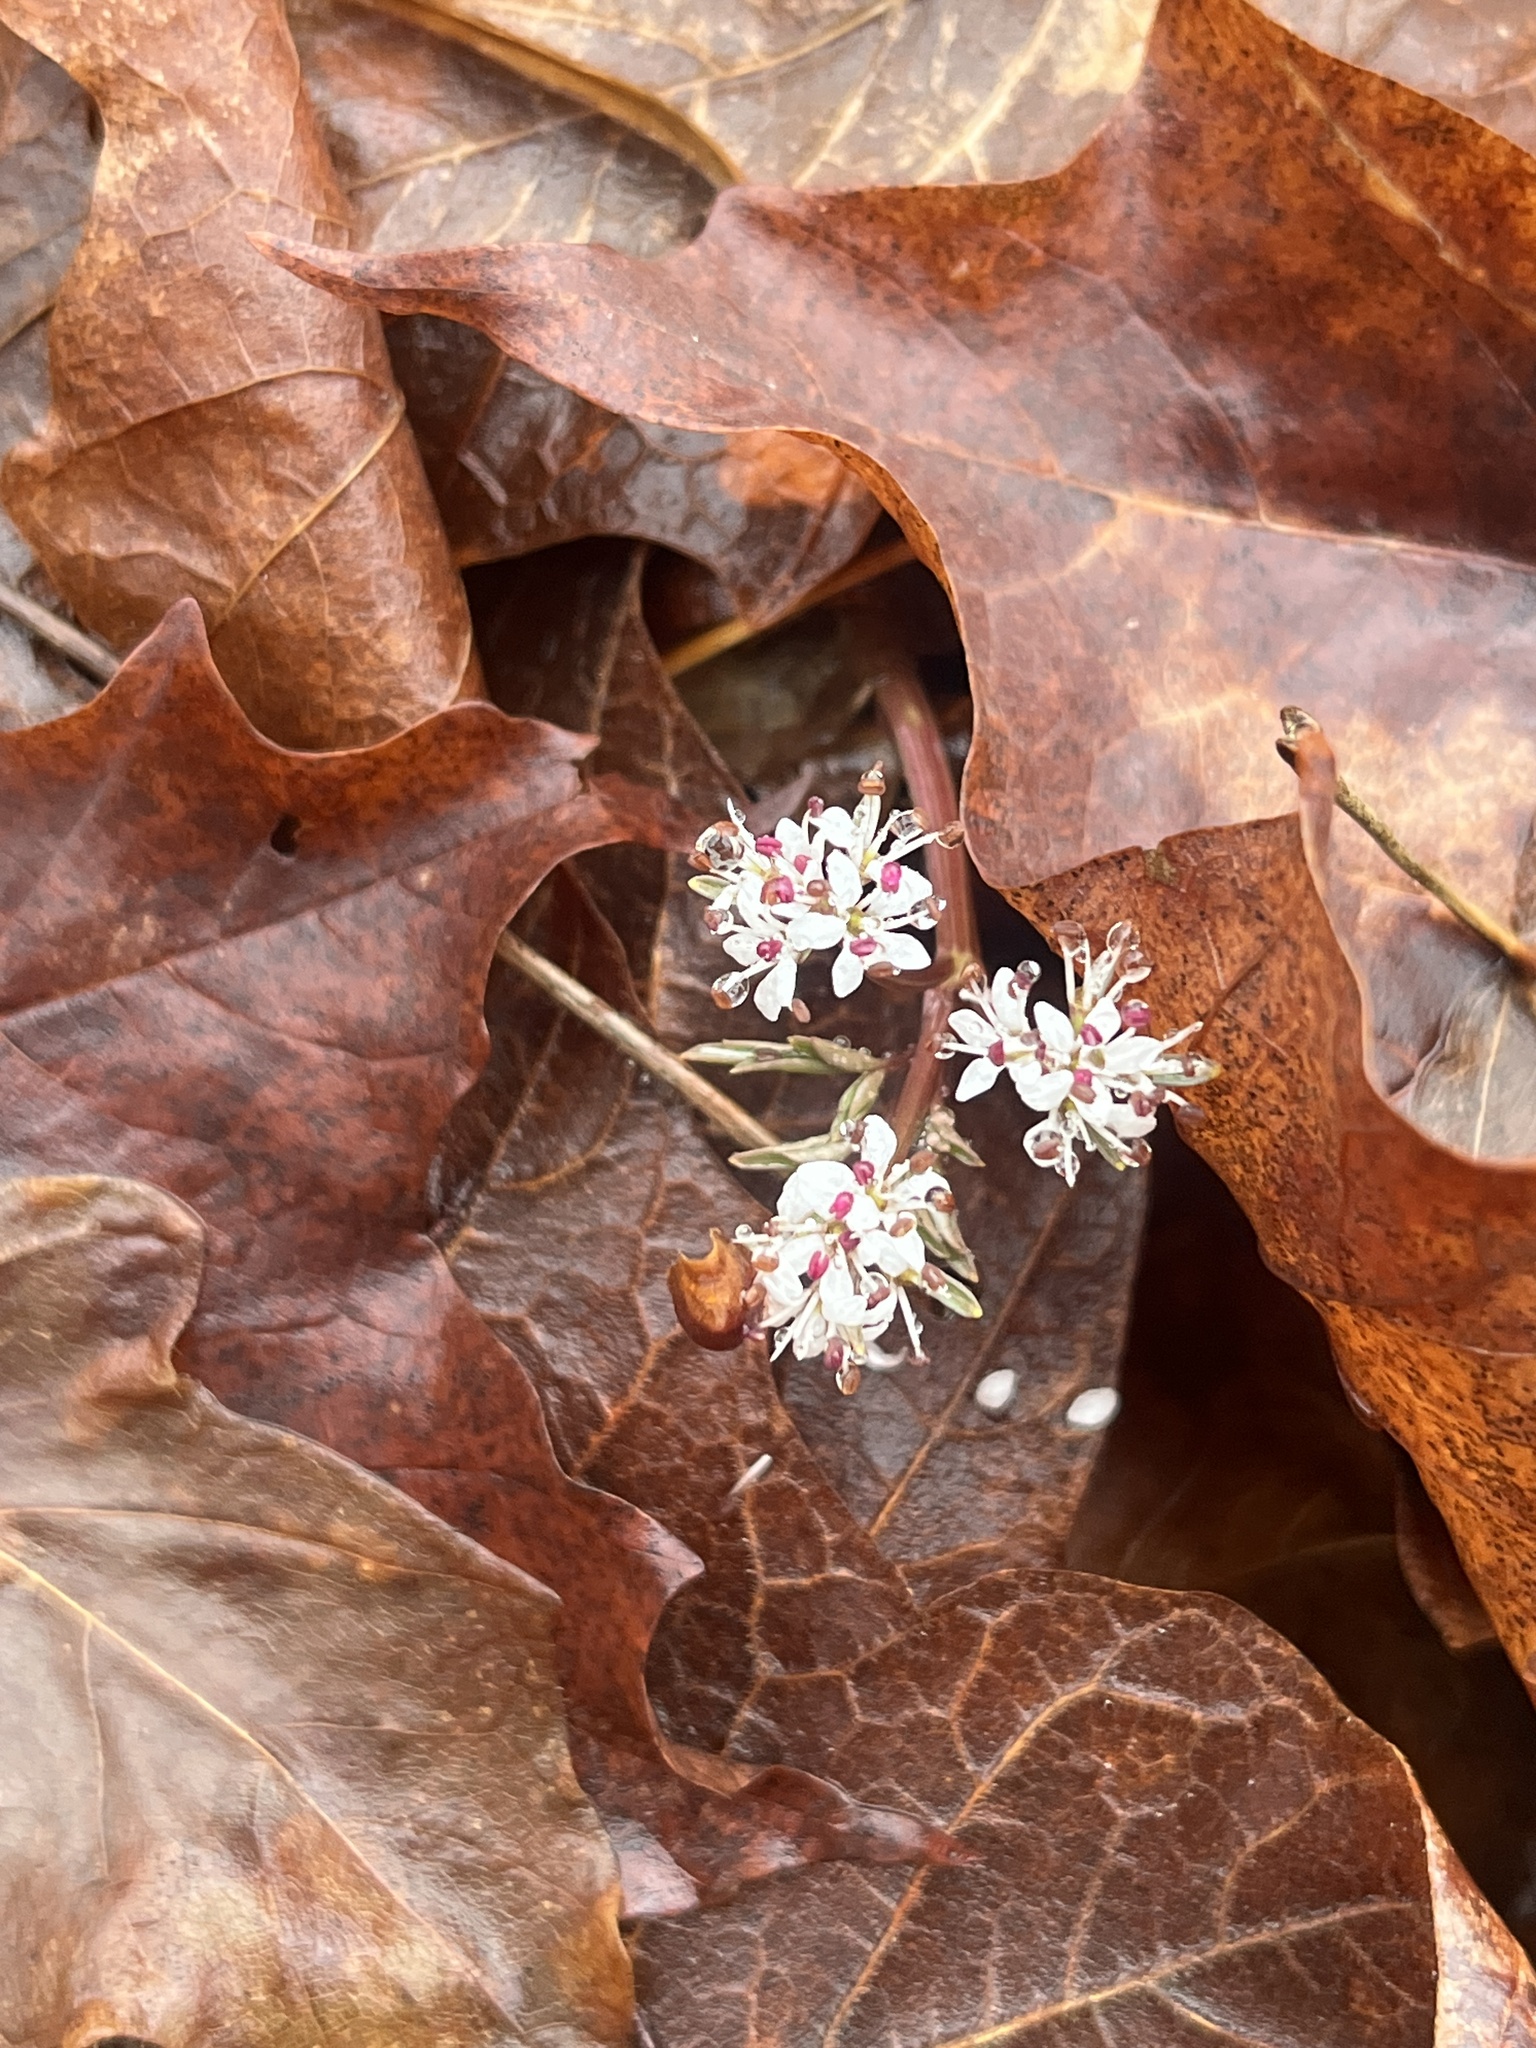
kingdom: Plantae
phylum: Tracheophyta
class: Magnoliopsida
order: Apiales
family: Apiaceae
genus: Erigenia
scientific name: Erigenia bulbosa
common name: Pepper-and-salt
